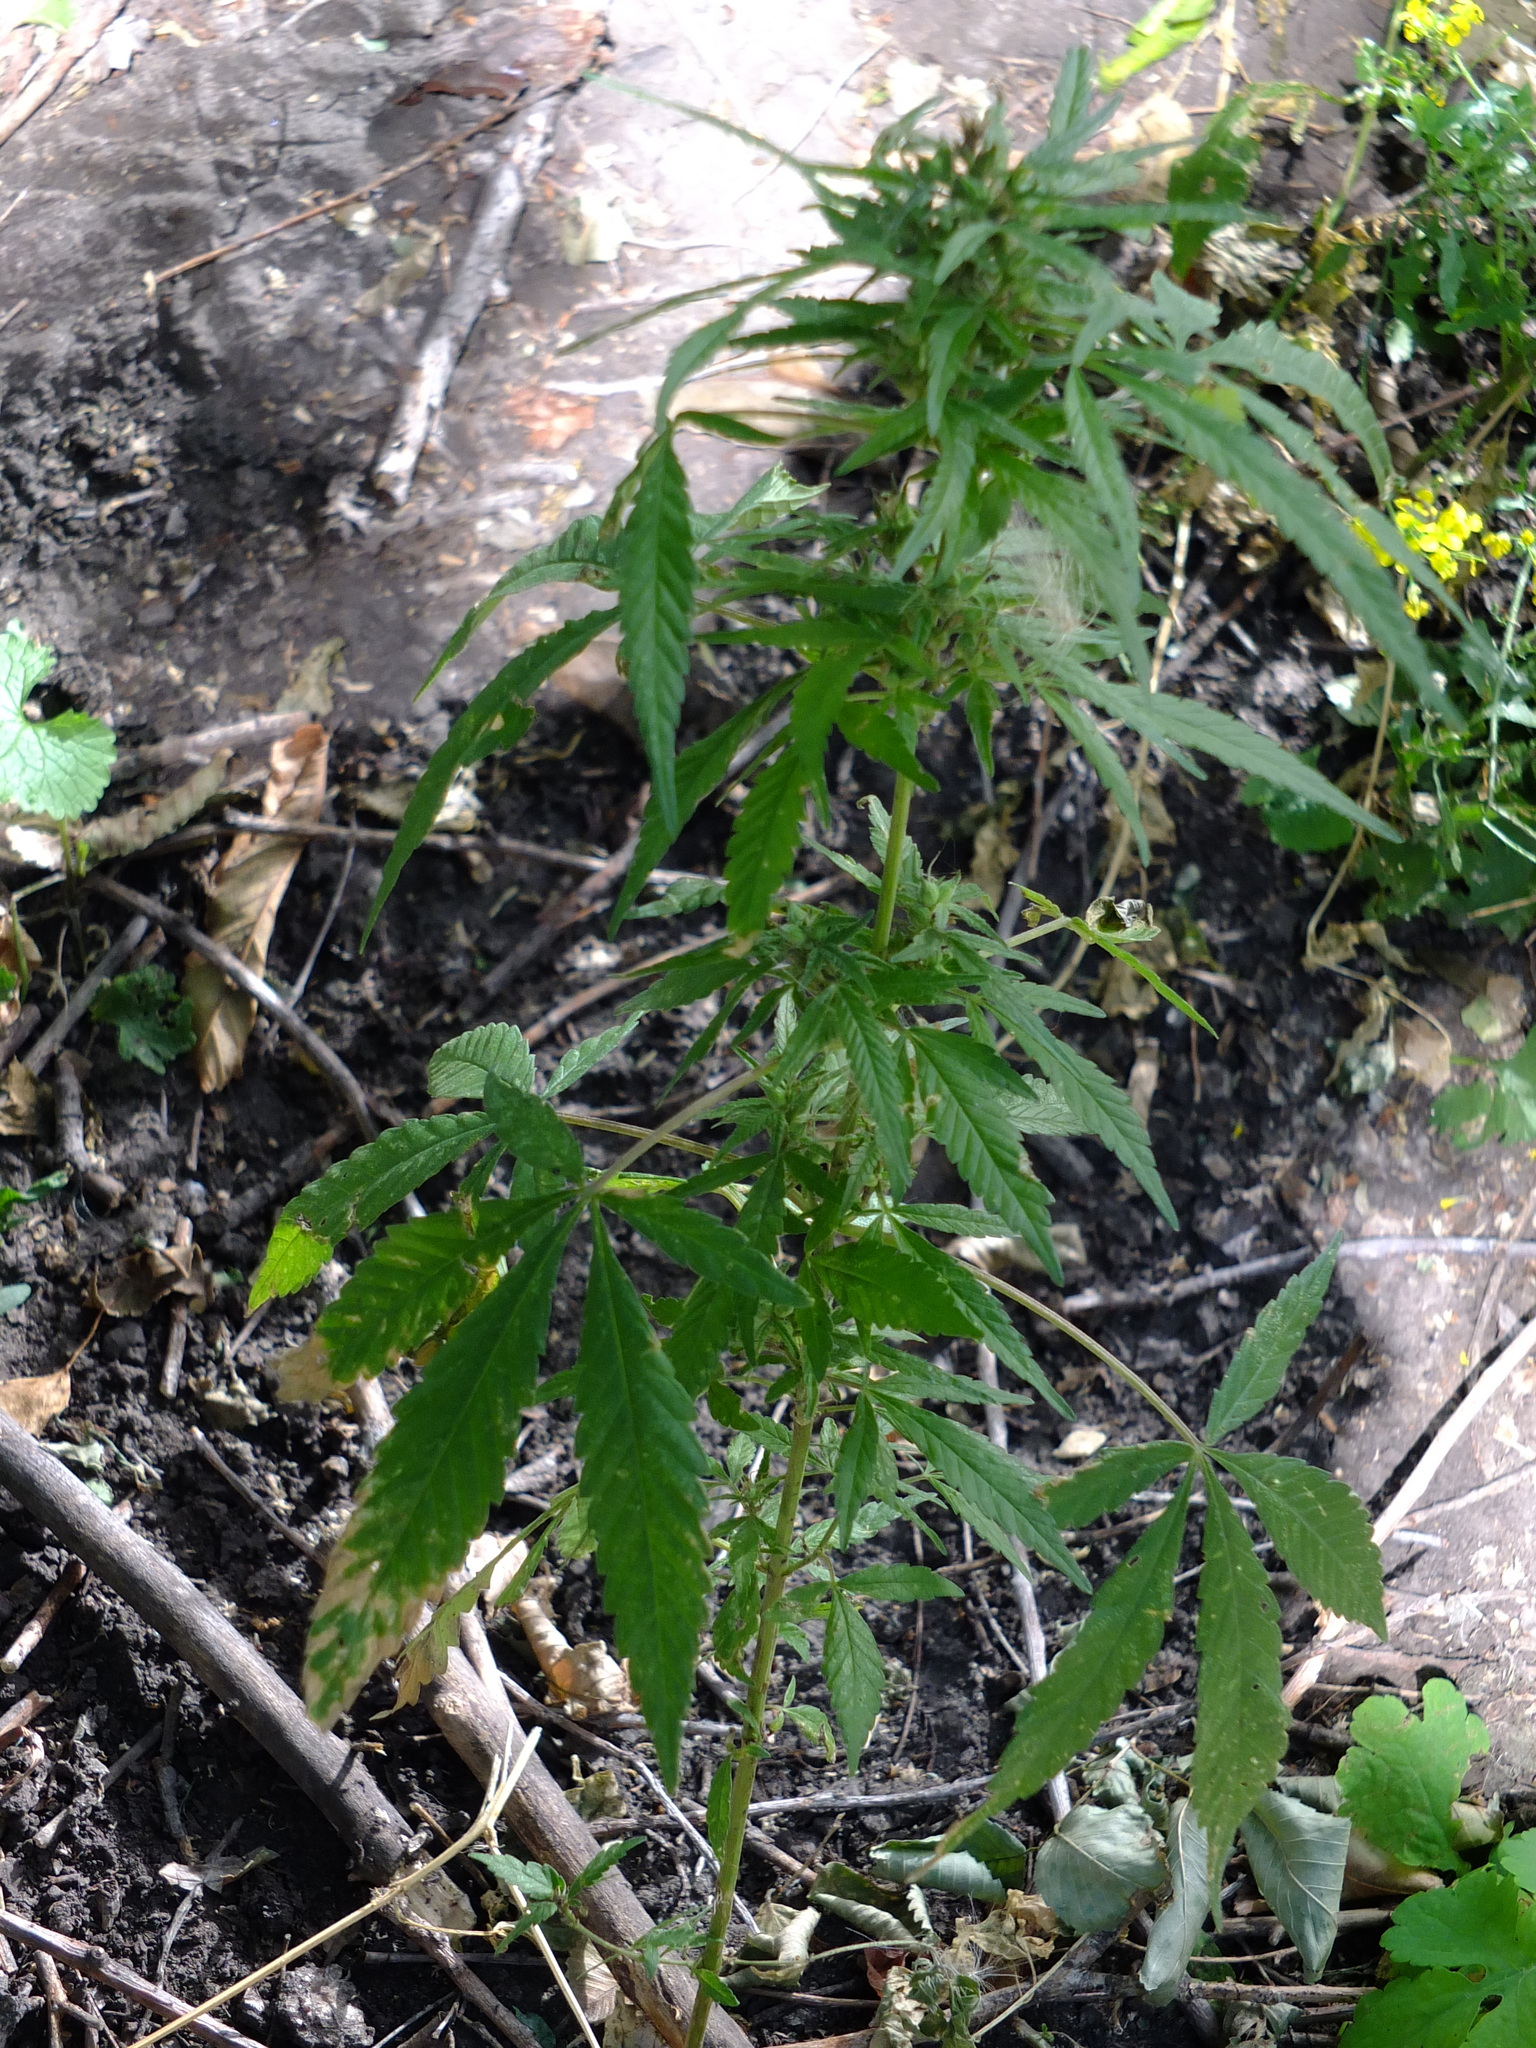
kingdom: Plantae
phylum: Tracheophyta
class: Magnoliopsida
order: Rosales
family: Cannabaceae
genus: Cannabis
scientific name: Cannabis sativa
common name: Hemp
